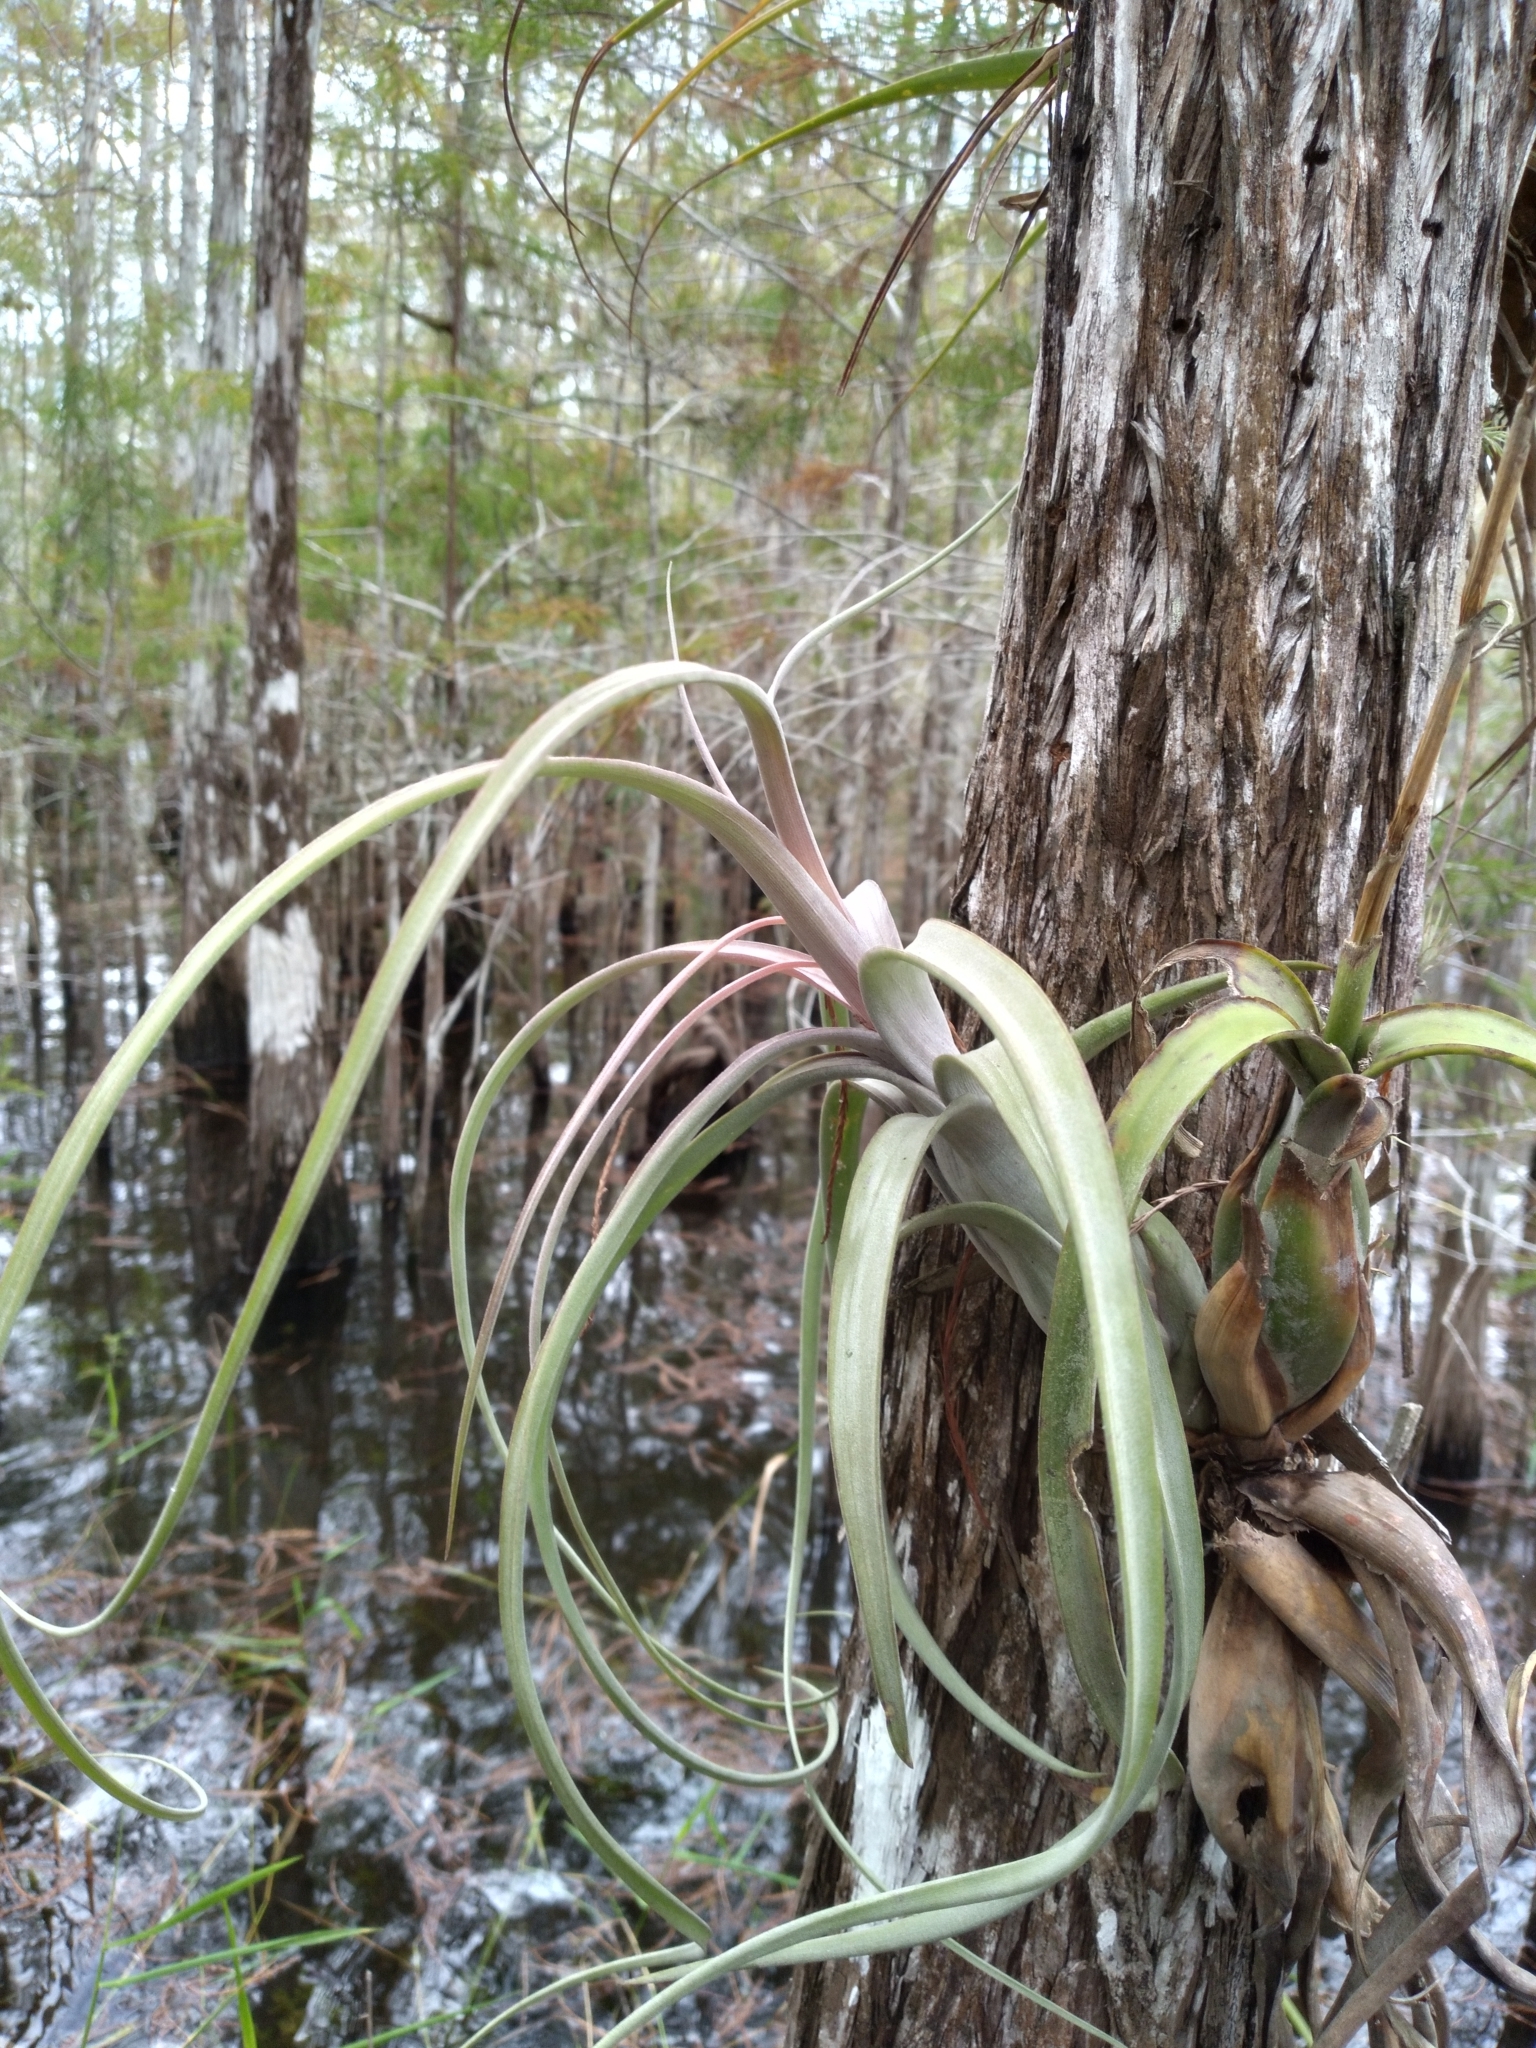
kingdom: Plantae
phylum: Tracheophyta
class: Liliopsida
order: Poales
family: Bromeliaceae
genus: Tillandsia
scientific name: Tillandsia balbisiana
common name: Northern needleleaf
